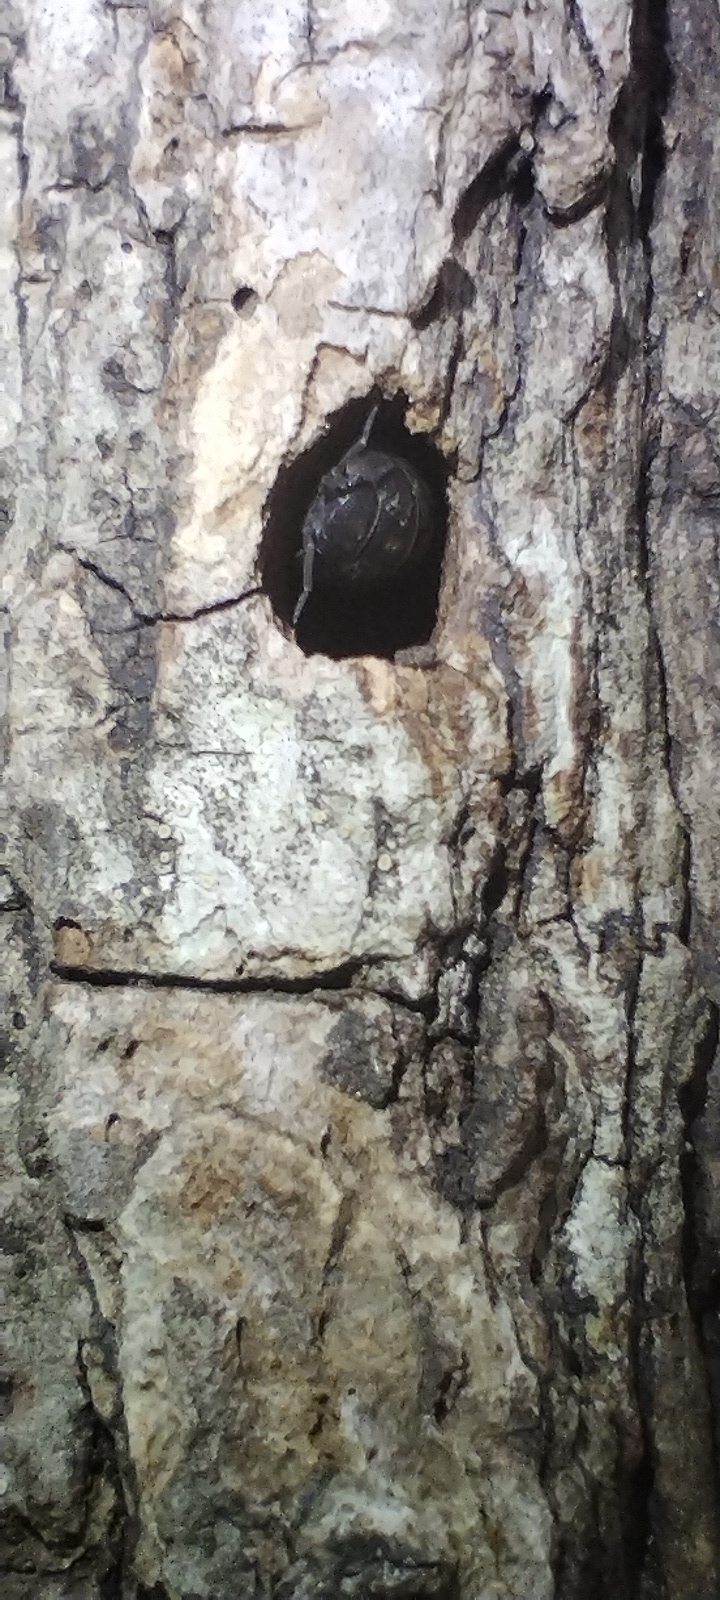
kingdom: Animalia
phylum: Arthropoda
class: Malacostraca
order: Isopoda
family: Armadillidiidae
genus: Armadillidium
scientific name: Armadillidium vulgare
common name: Common pill woodlouse
